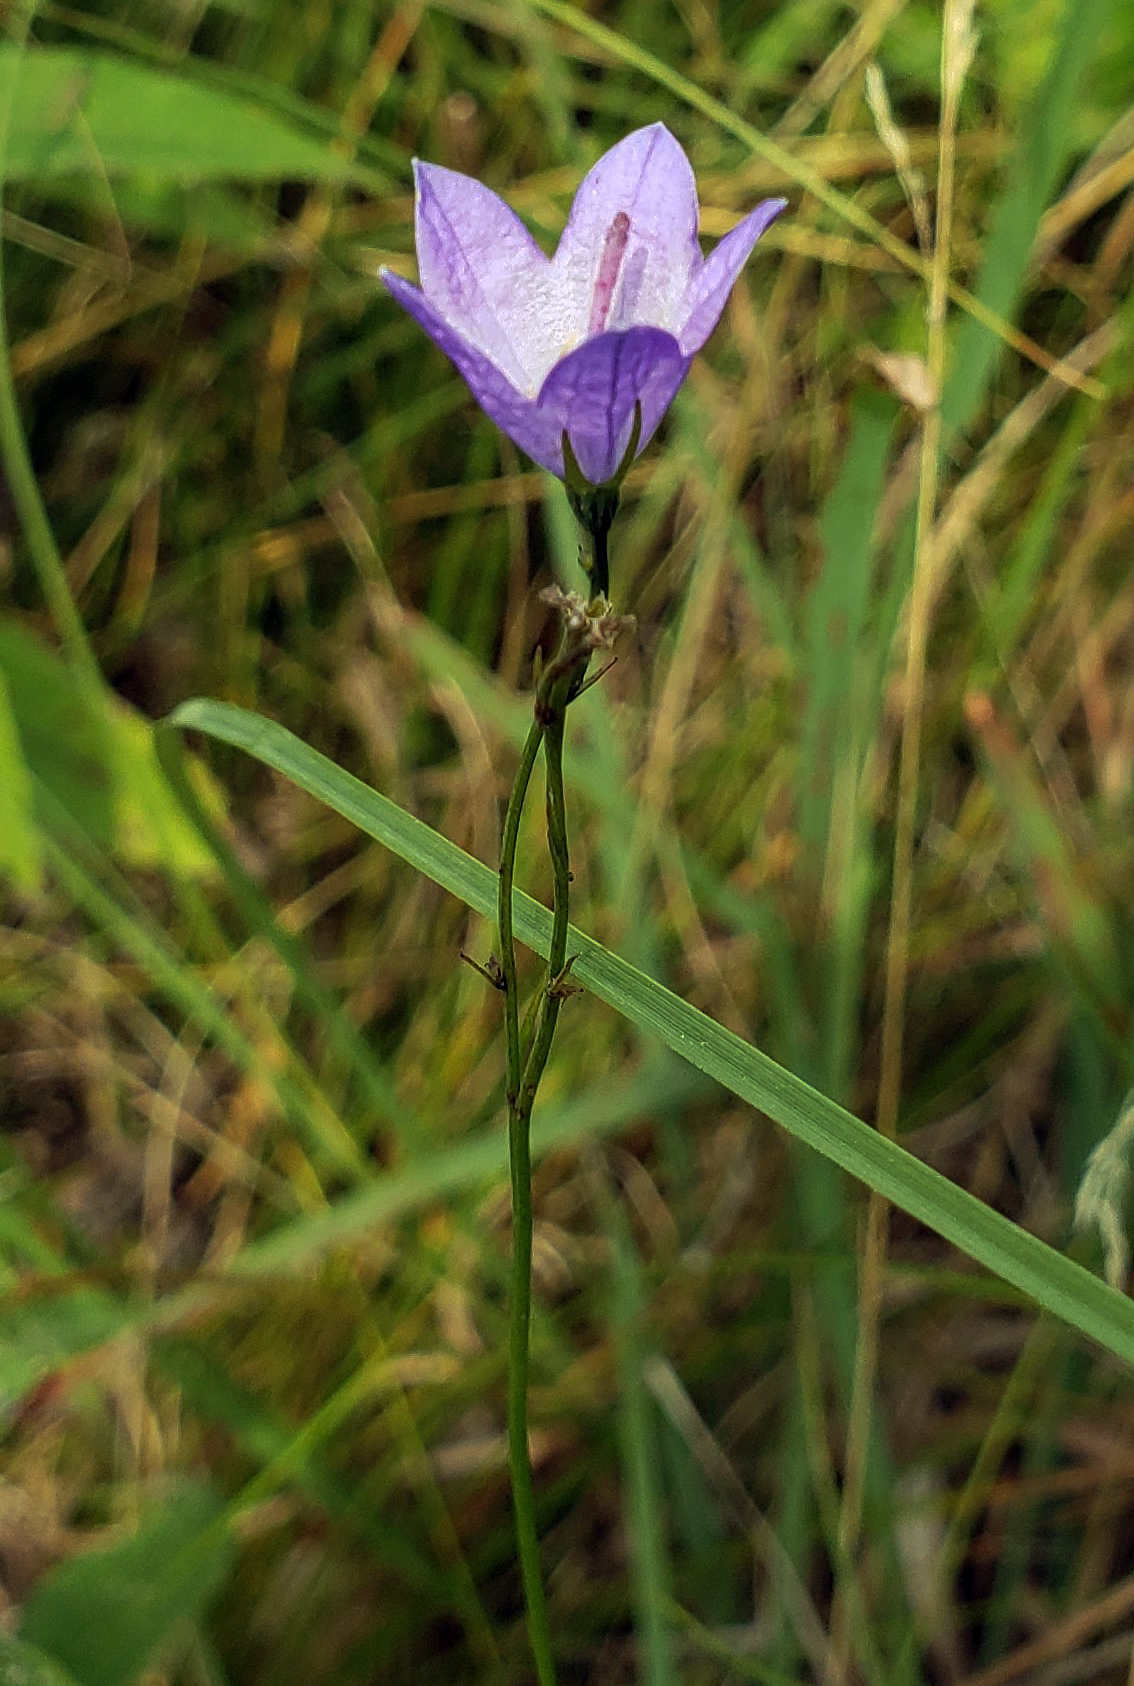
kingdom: Plantae
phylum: Tracheophyta
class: Magnoliopsida
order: Asterales
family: Campanulaceae
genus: Campanula
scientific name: Campanula intercedens
